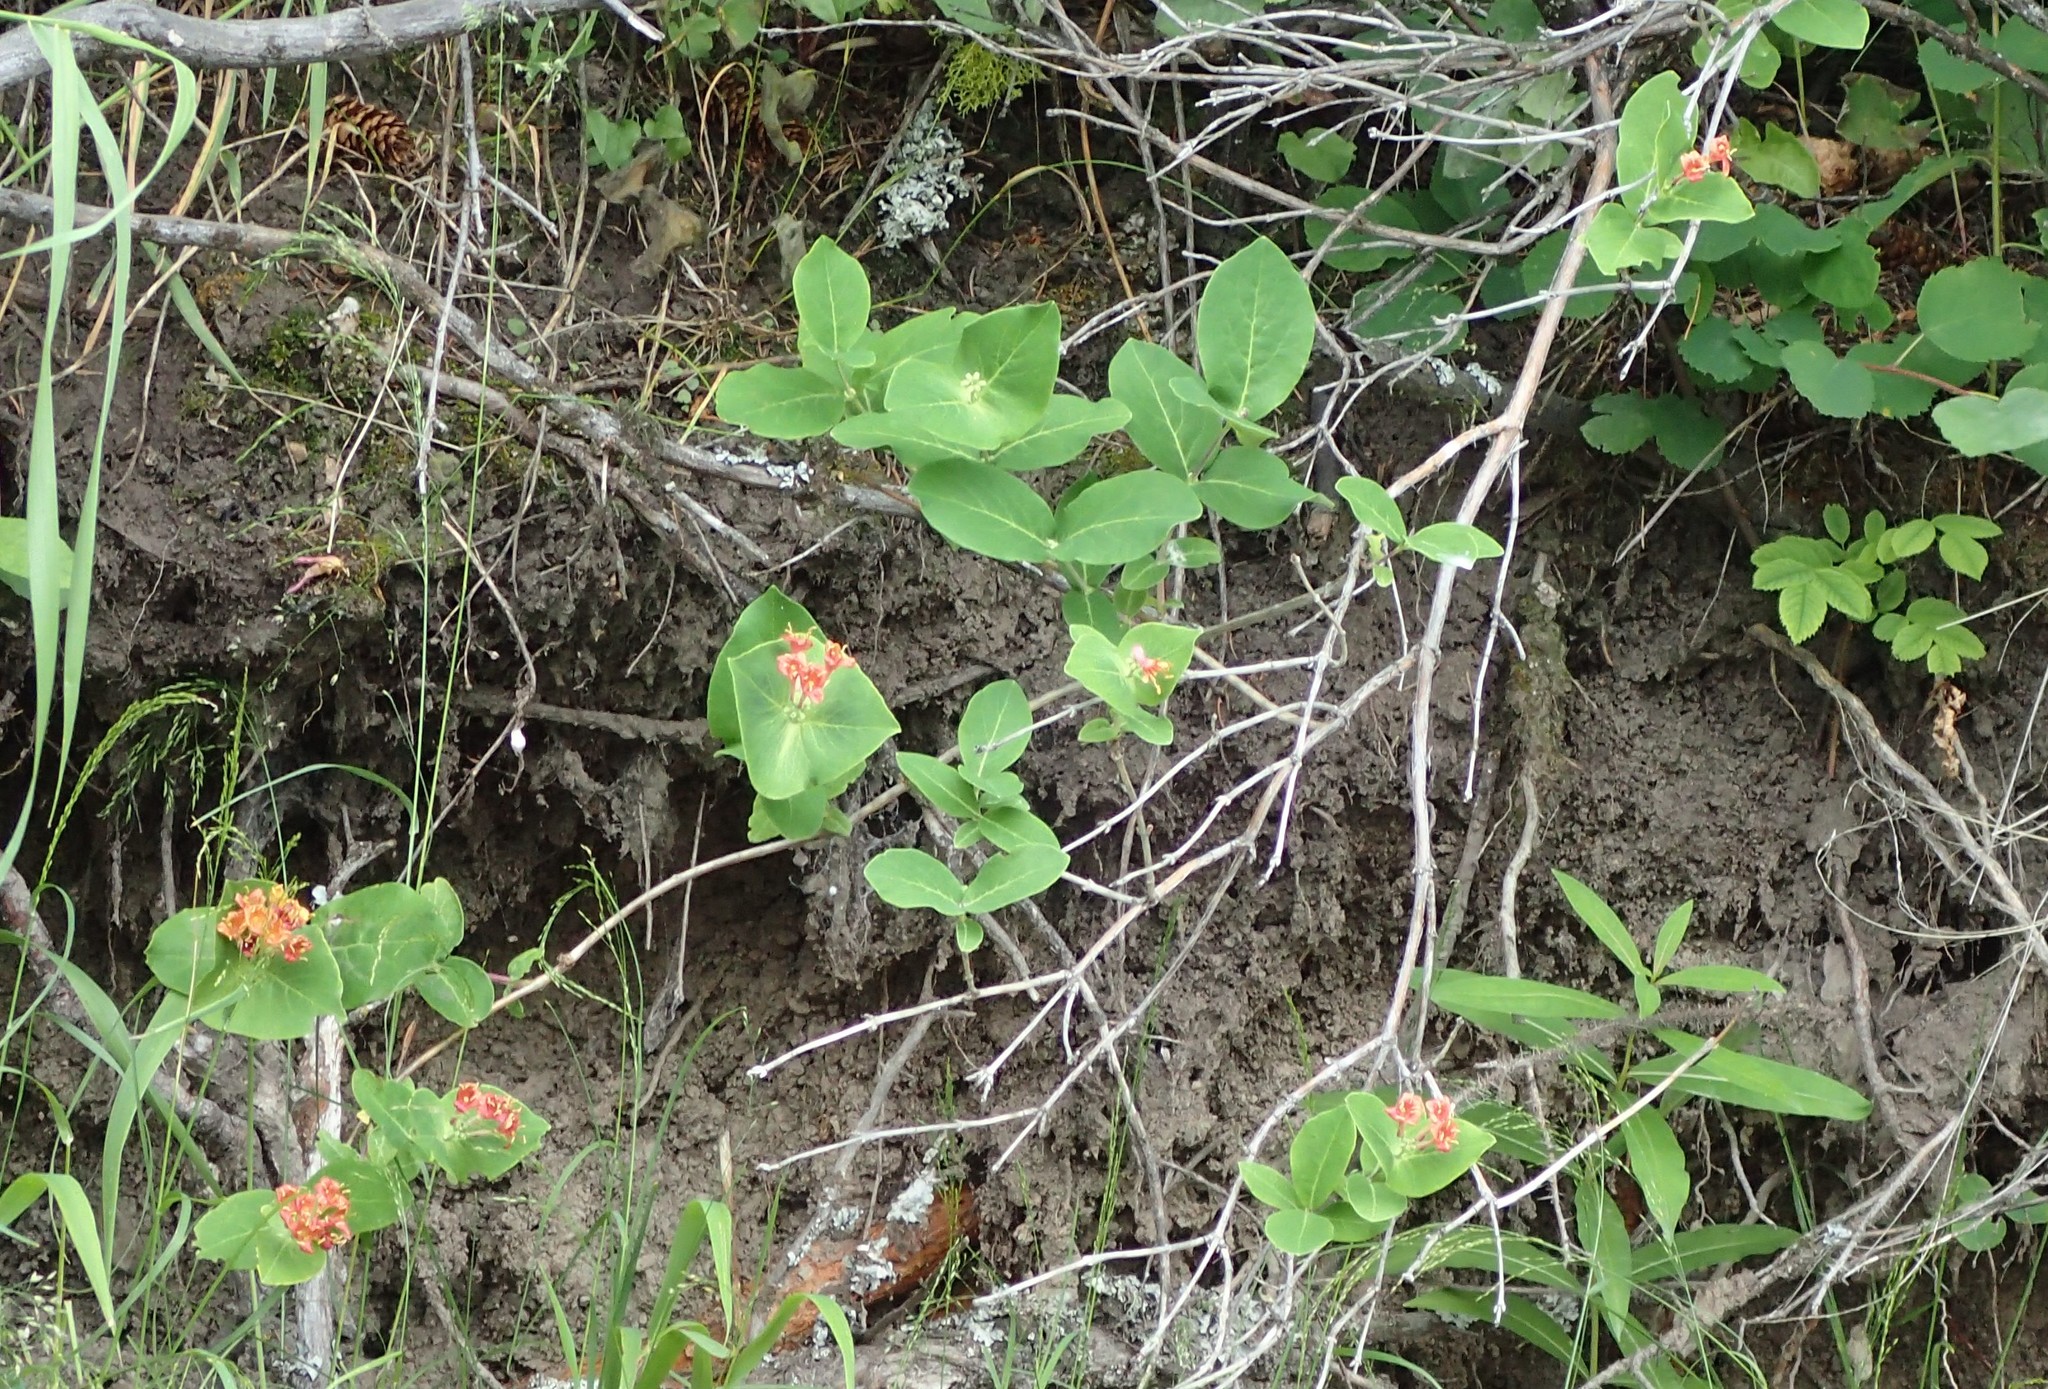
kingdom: Plantae
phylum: Tracheophyta
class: Magnoliopsida
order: Dipsacales
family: Caprifoliaceae
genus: Lonicera
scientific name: Lonicera dioica
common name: Limber honeysuckle
